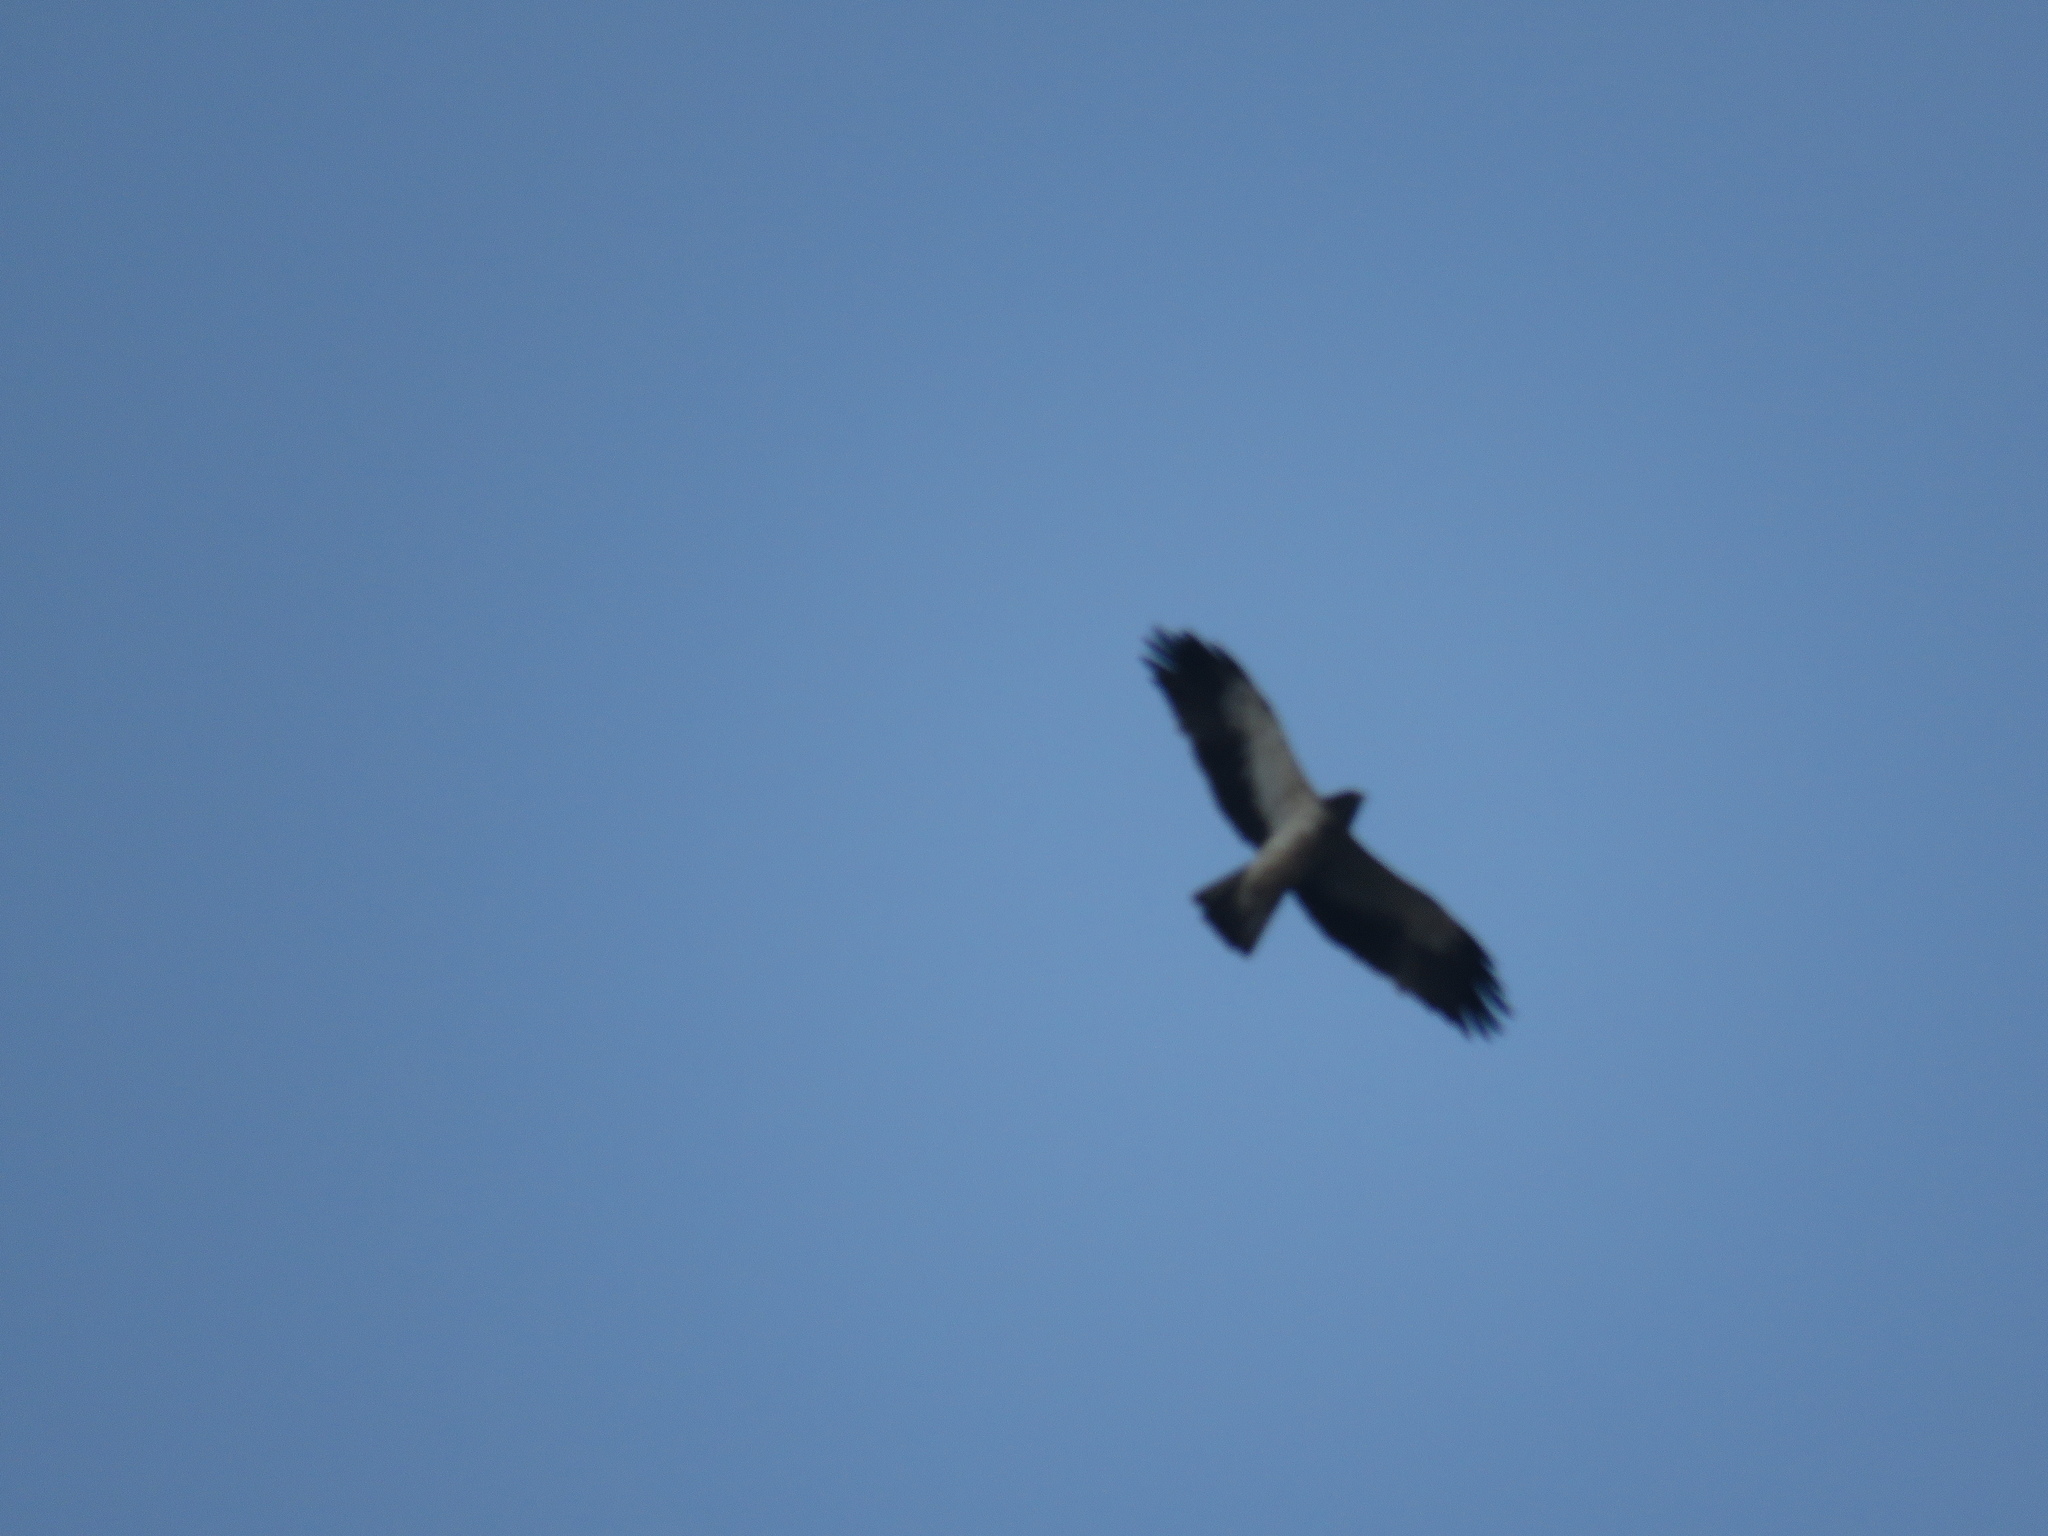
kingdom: Animalia
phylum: Chordata
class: Aves
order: Accipitriformes
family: Accipitridae
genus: Hieraaetus
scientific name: Hieraaetus pennatus
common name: Booted eagle
